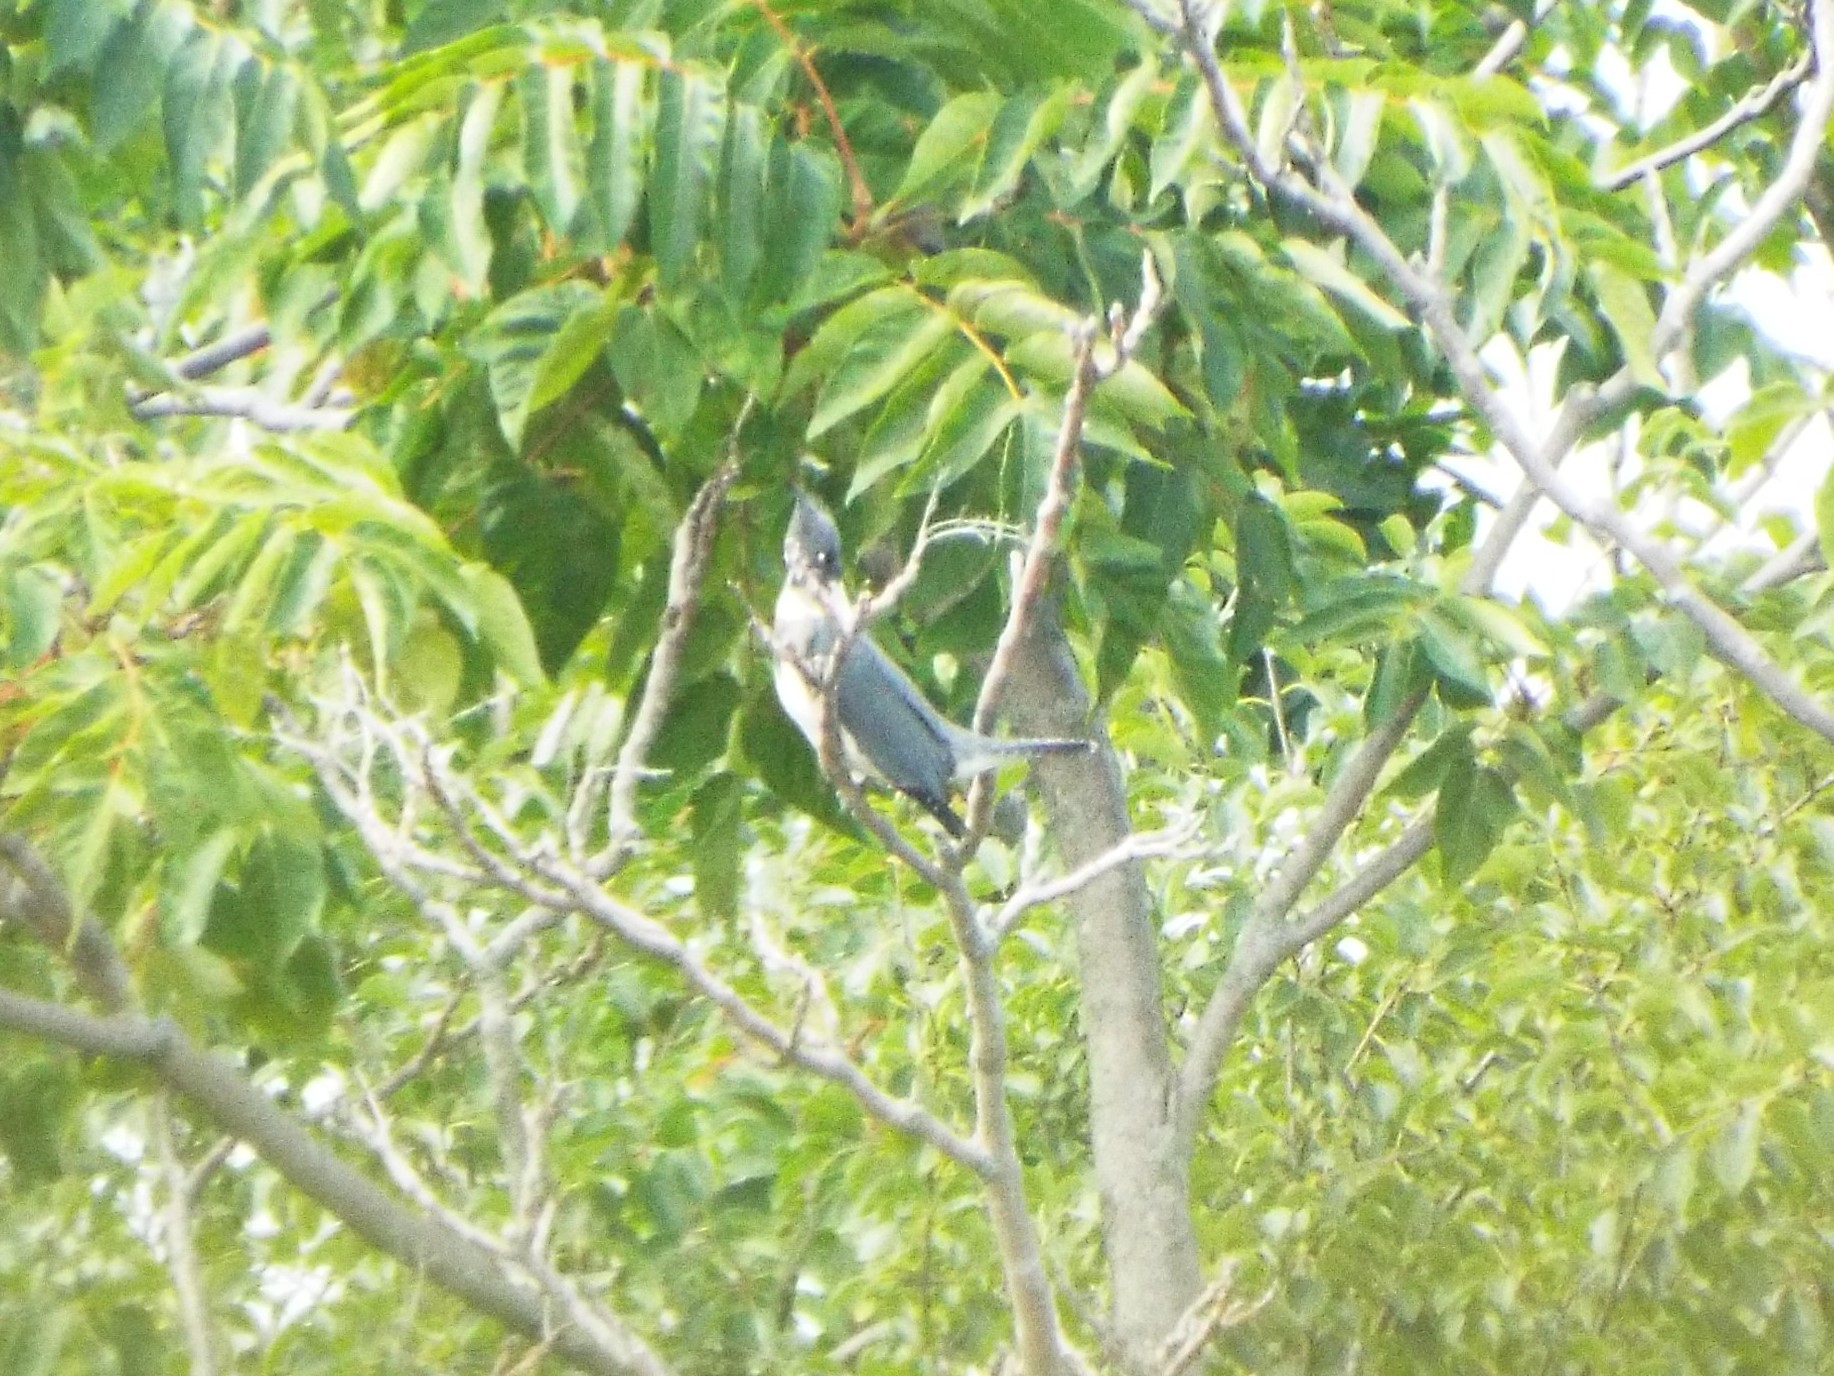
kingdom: Animalia
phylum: Chordata
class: Aves
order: Coraciiformes
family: Alcedinidae
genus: Megaceryle
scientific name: Megaceryle alcyon
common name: Belted kingfisher
